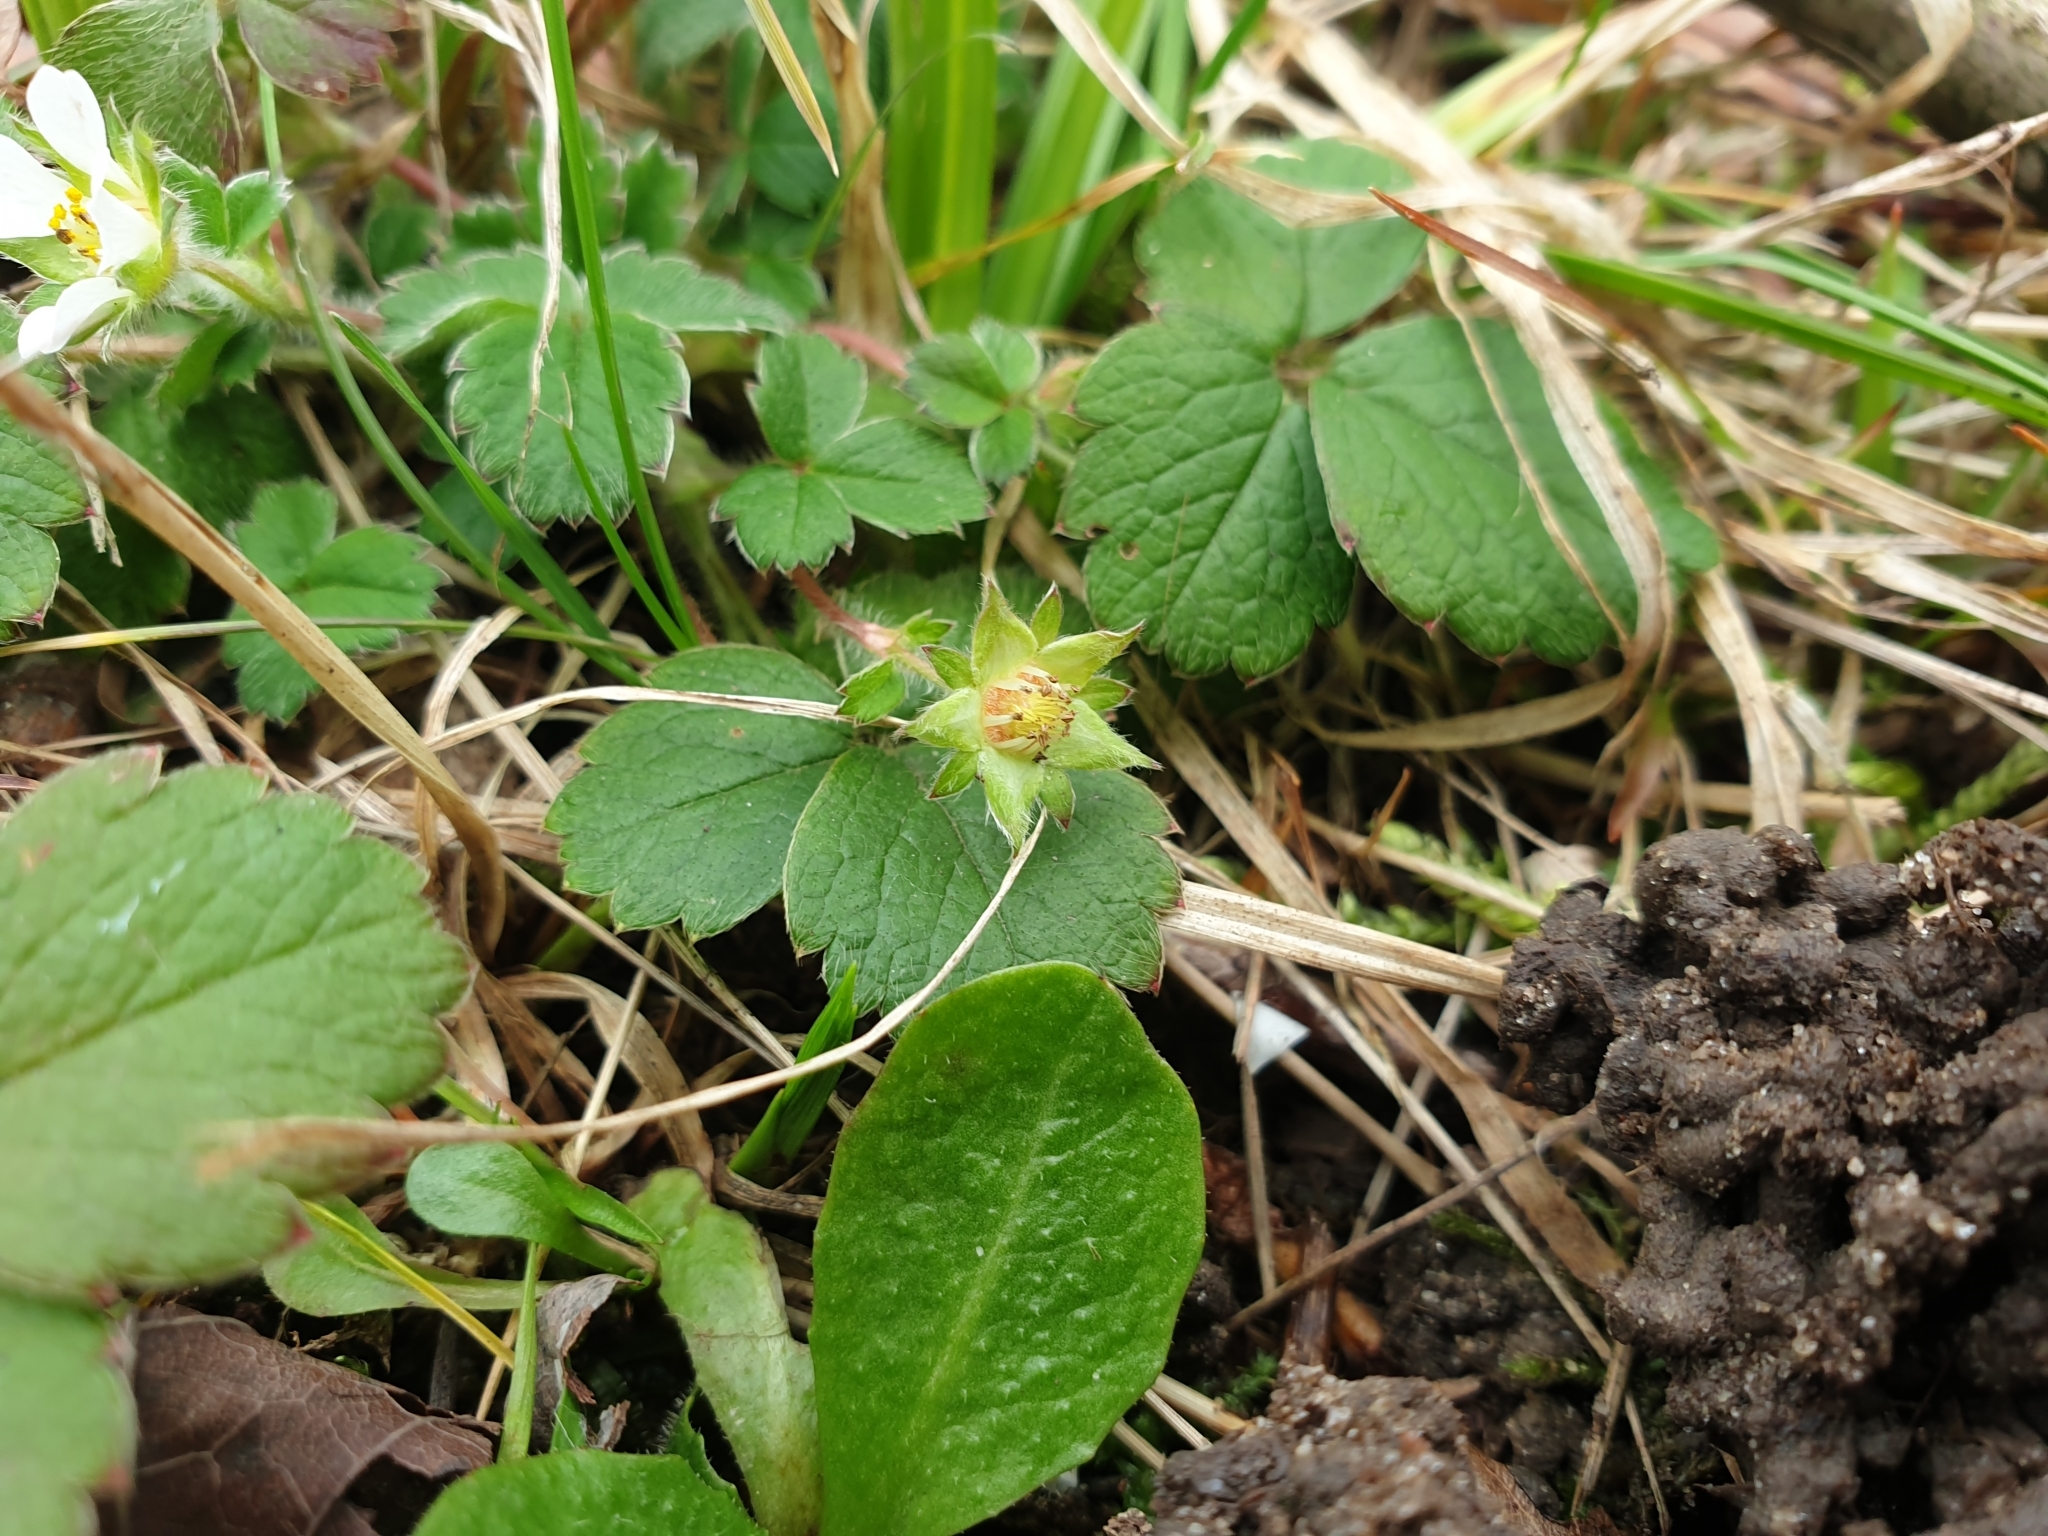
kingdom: Plantae
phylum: Tracheophyta
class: Magnoliopsida
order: Rosales
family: Rosaceae
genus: Potentilla
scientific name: Potentilla sterilis
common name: Barren strawberry
